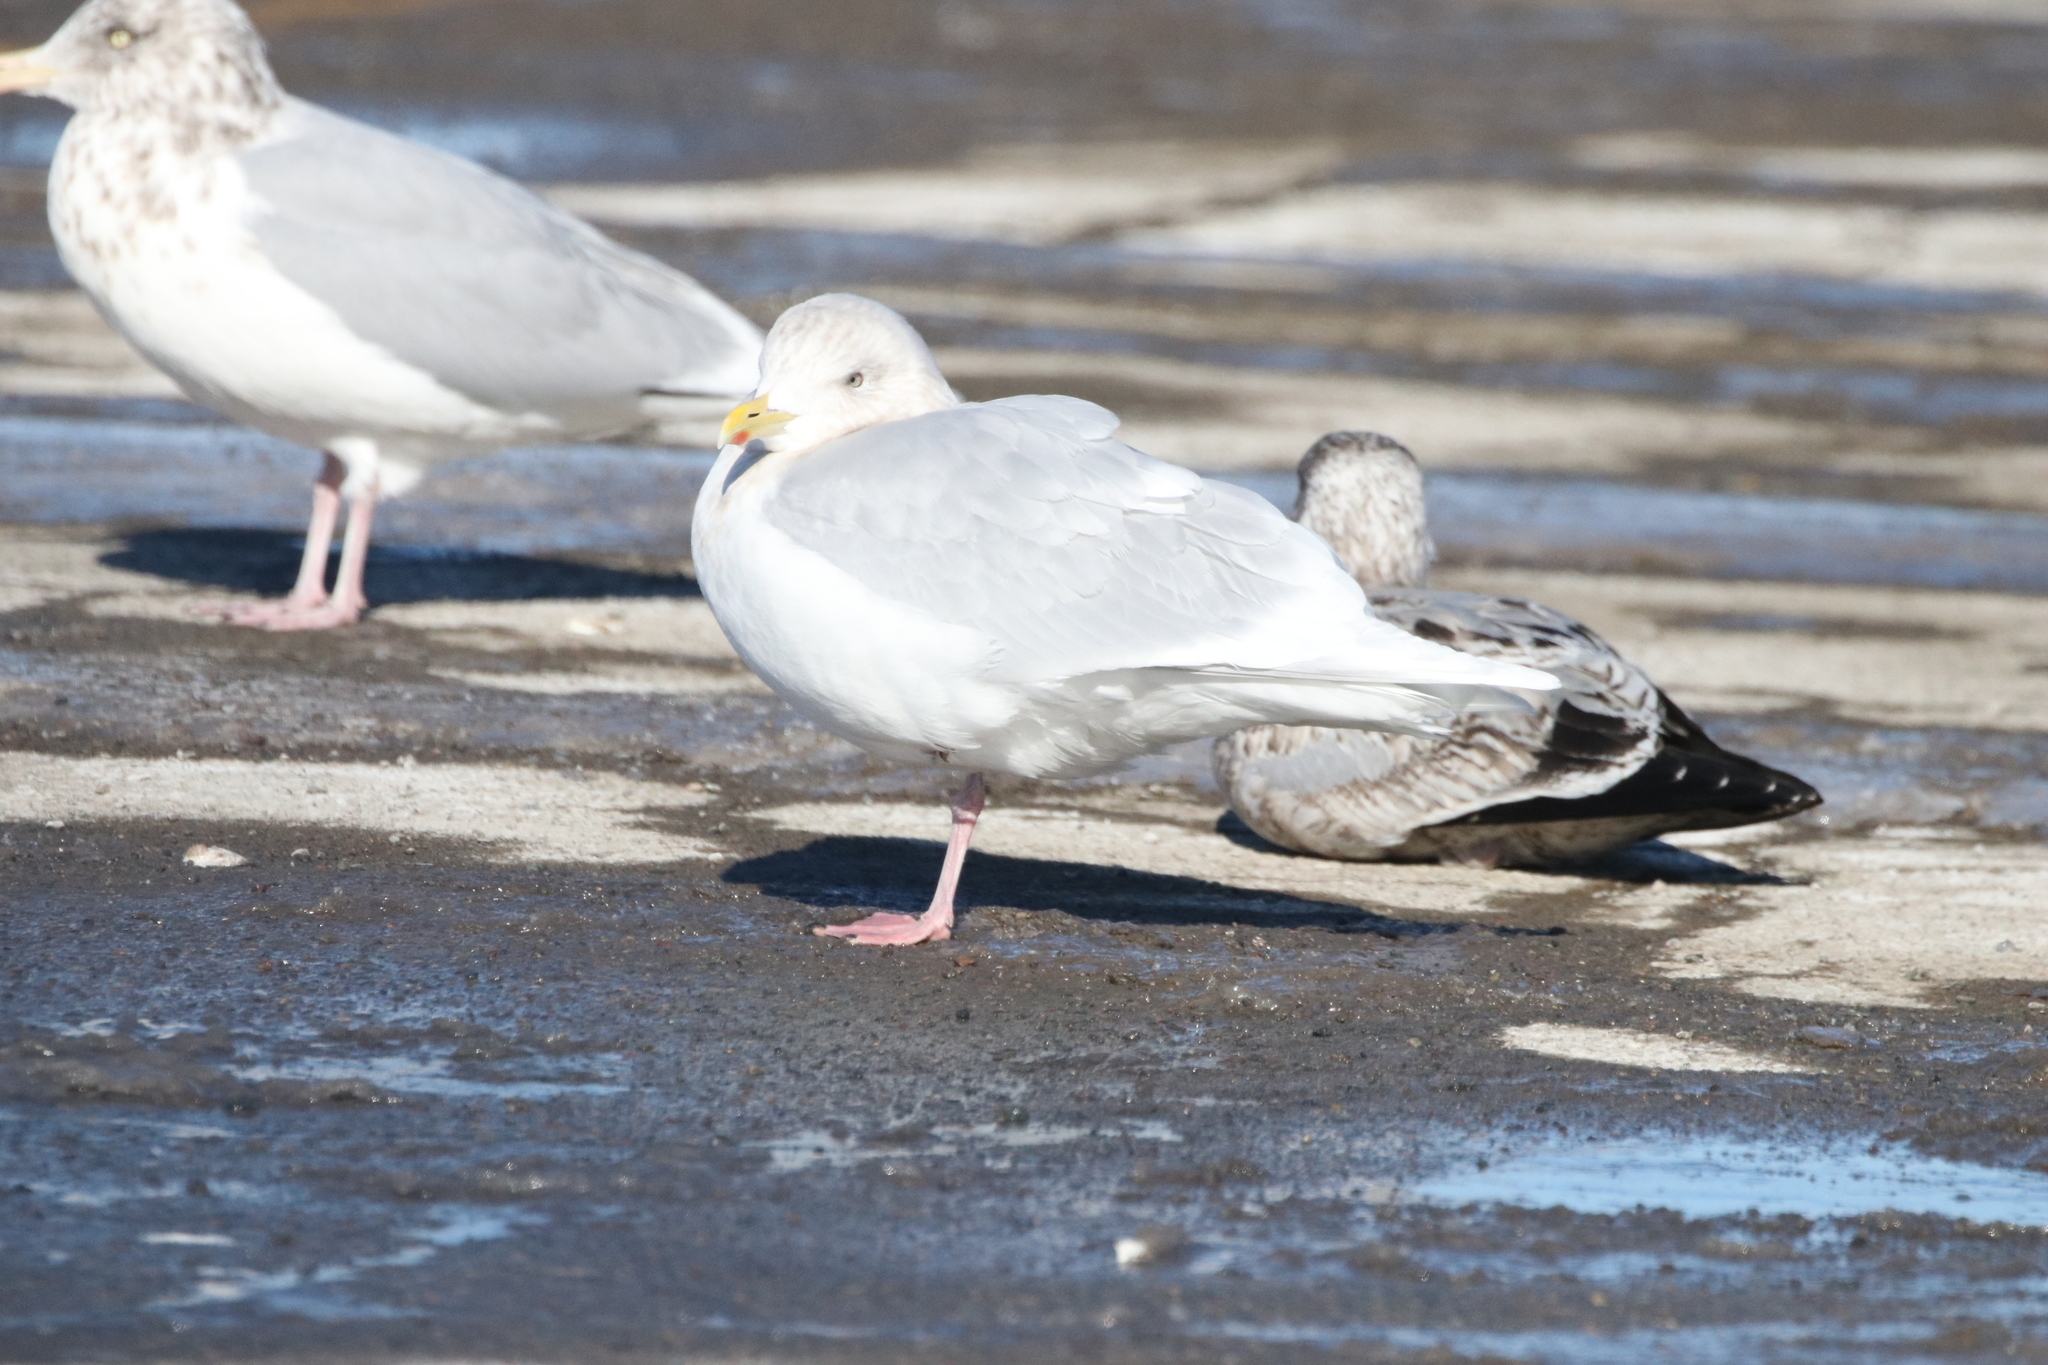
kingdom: Animalia
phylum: Chordata
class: Aves
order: Charadriiformes
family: Laridae
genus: Larus
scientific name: Larus glaucoides
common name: Iceland gull
